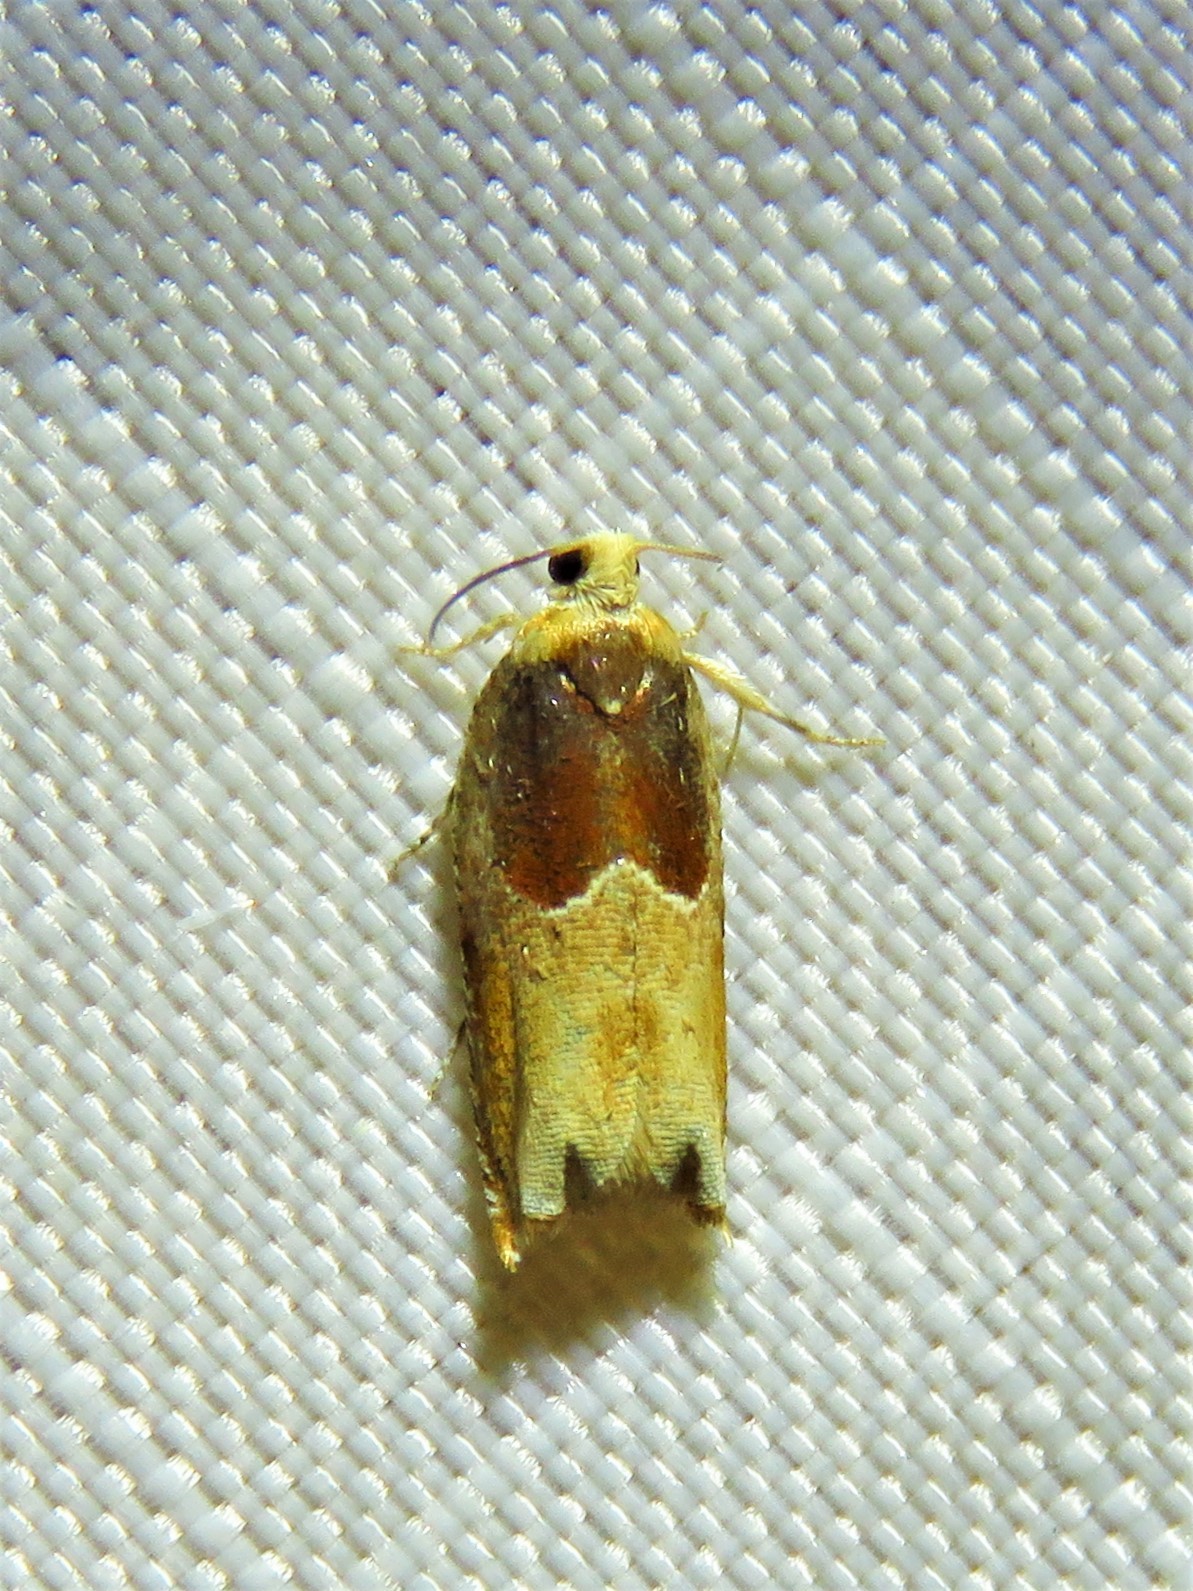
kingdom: Animalia
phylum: Arthropoda
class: Insecta
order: Lepidoptera
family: Tortricidae
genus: Ancylis
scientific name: Ancylis divisana
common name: Two-toned ancylis moth
